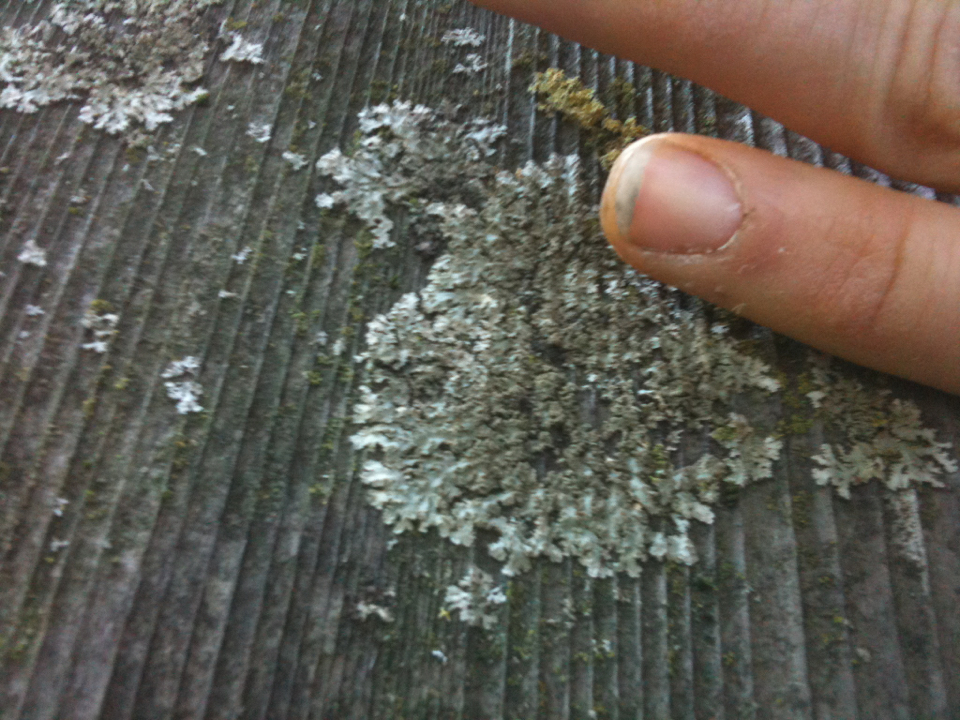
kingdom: Fungi
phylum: Ascomycota
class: Lecanoromycetes
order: Caliciales
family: Physciaceae
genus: Physconia
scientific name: Physconia isidiigera
